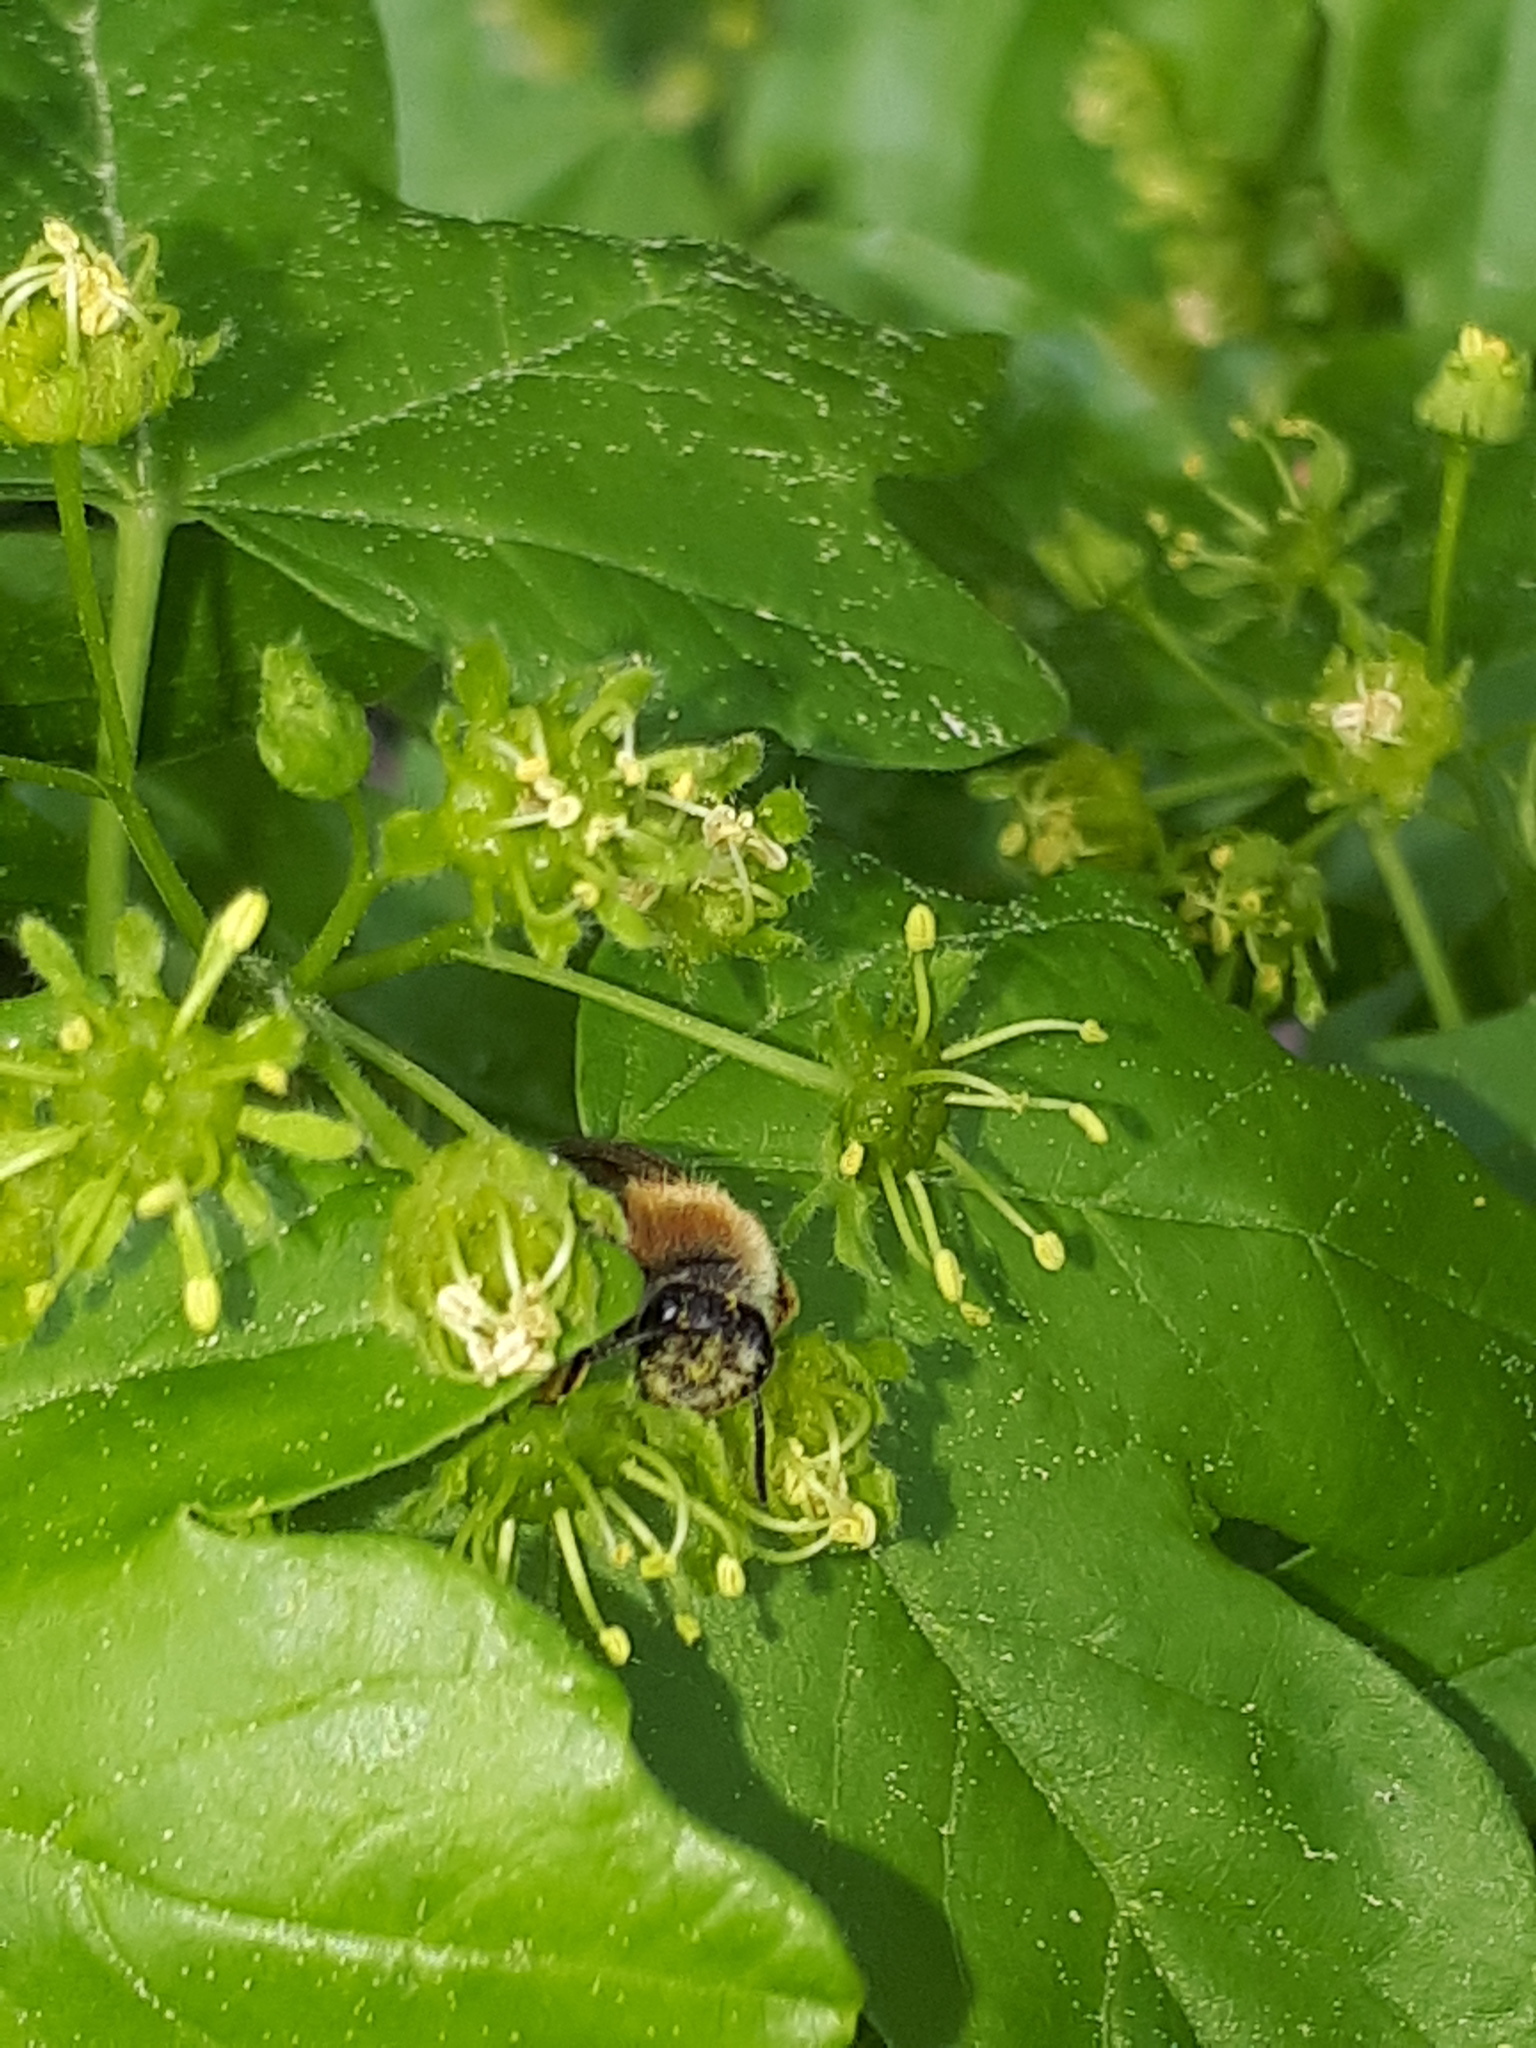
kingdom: Animalia
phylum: Arthropoda
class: Insecta
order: Hymenoptera
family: Andrenidae
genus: Andrena
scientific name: Andrena haemorrhoa
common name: Early mining bee
